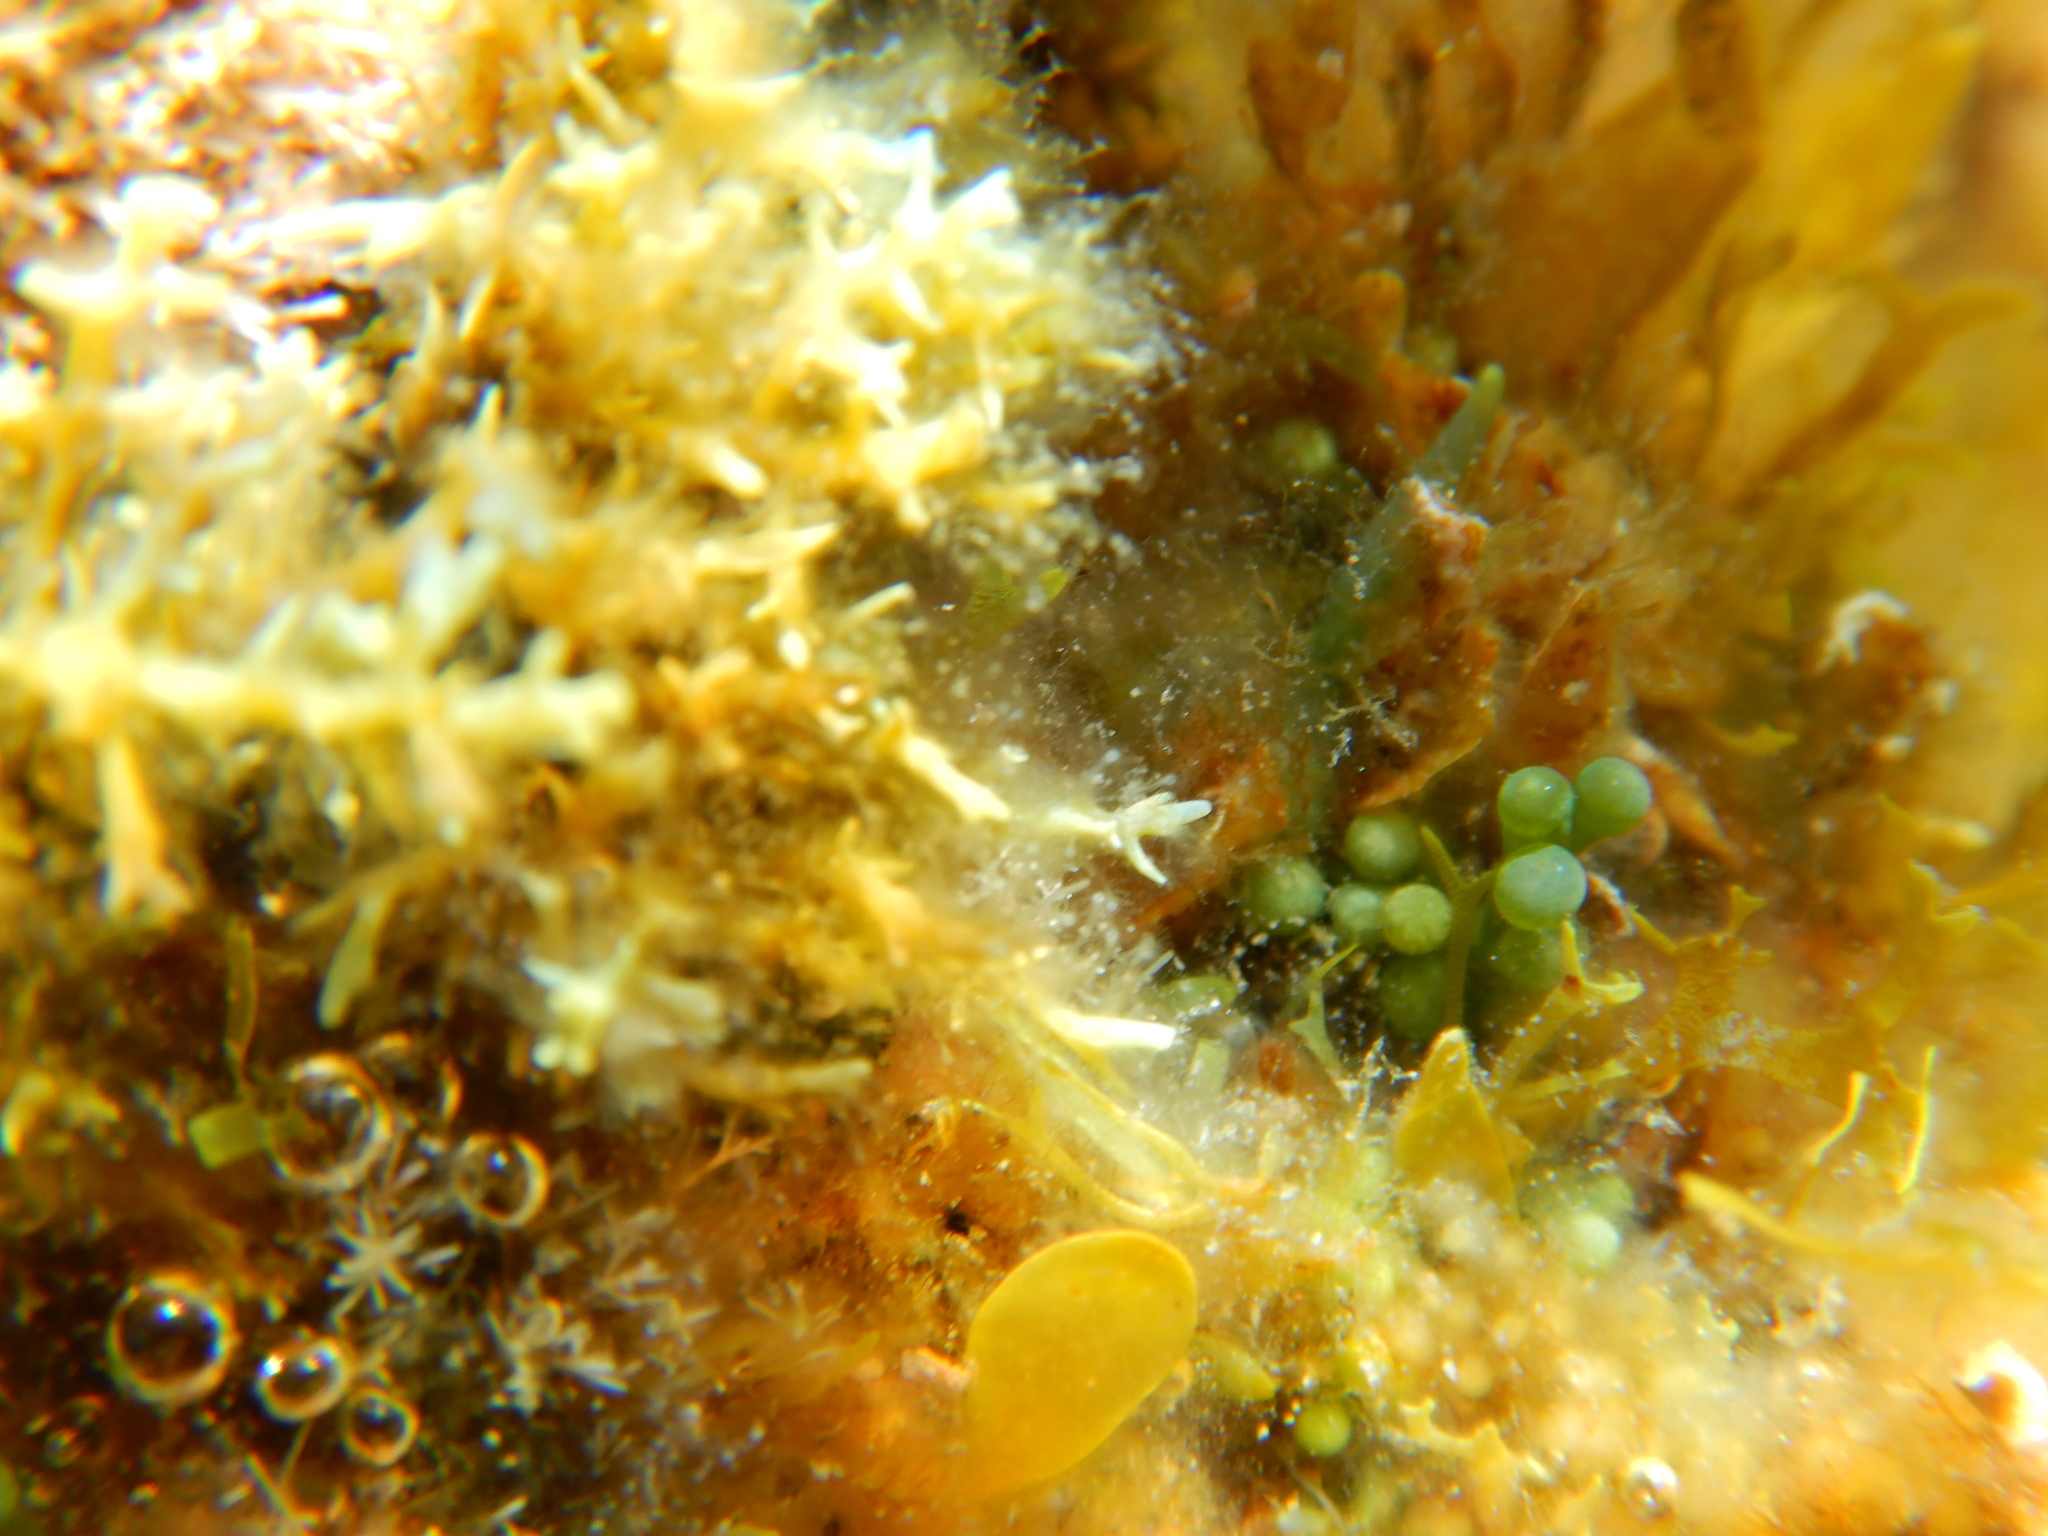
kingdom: Plantae
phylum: Chlorophyta
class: Ulvophyceae
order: Bryopsidales
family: Caulerpaceae
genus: Caulerpa
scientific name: Caulerpa racemosa
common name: Green grape algae
